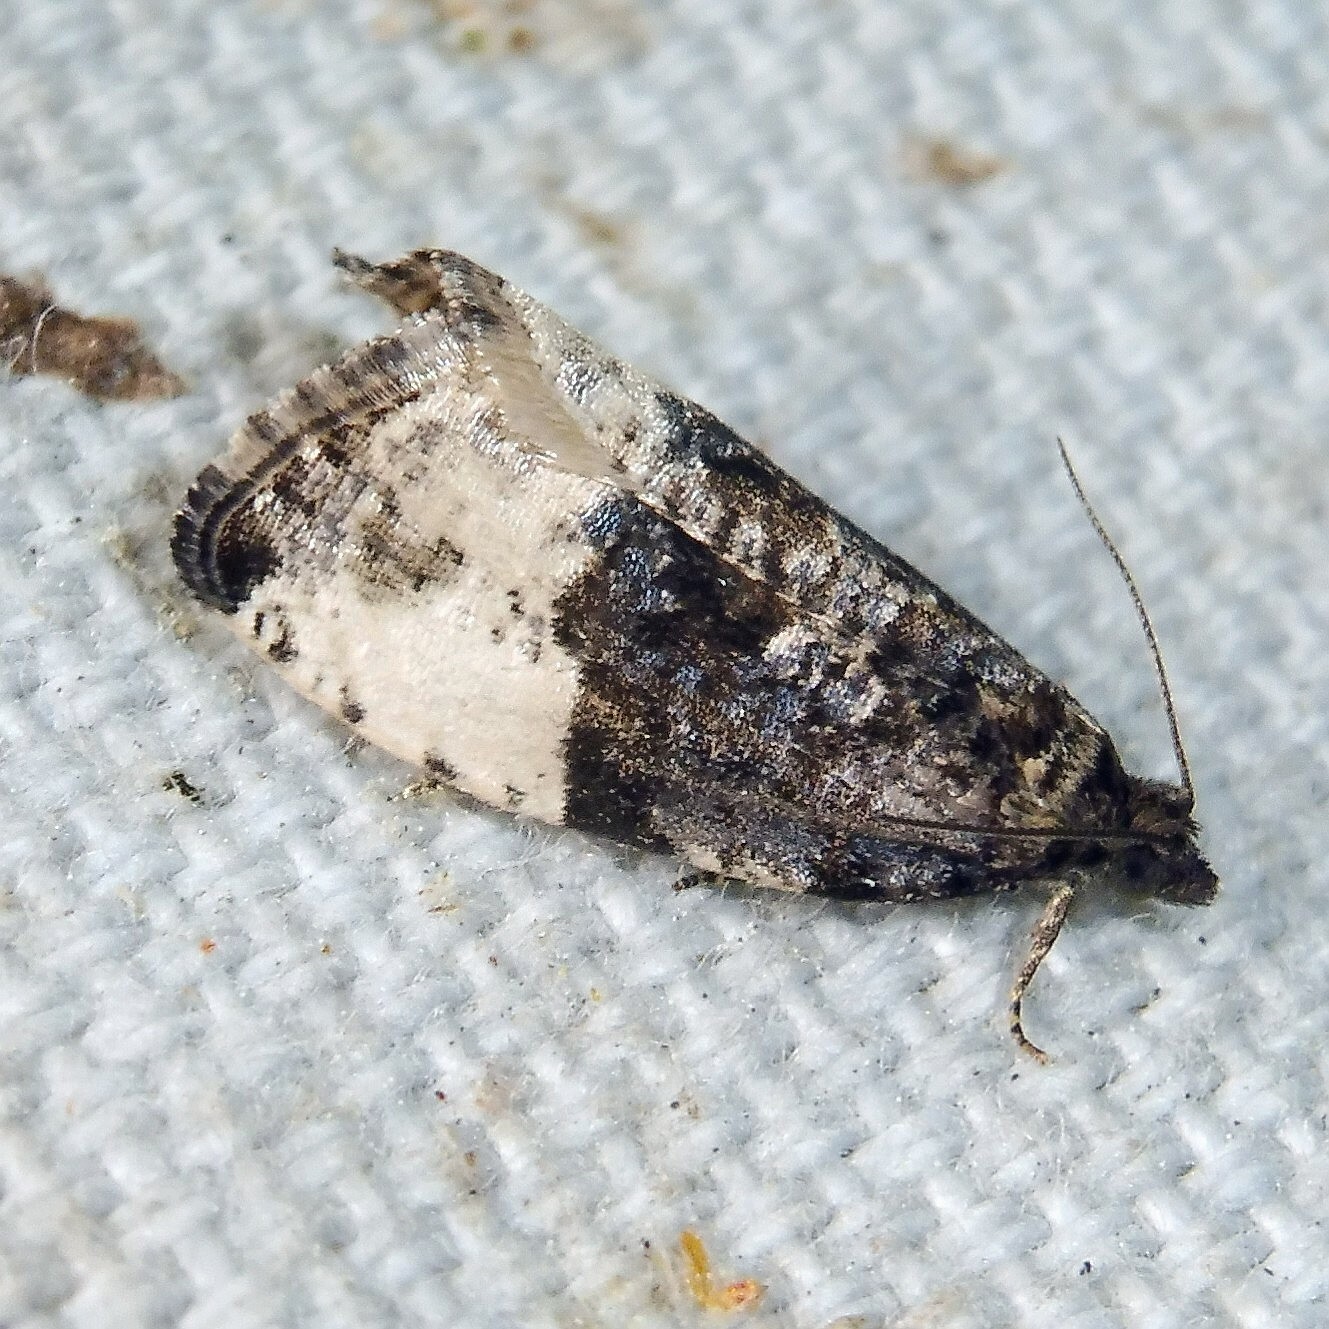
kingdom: Animalia
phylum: Arthropoda
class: Insecta
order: Lepidoptera
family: Tortricidae
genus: Hedya
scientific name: Hedya pruniana
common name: Plum tortrix
